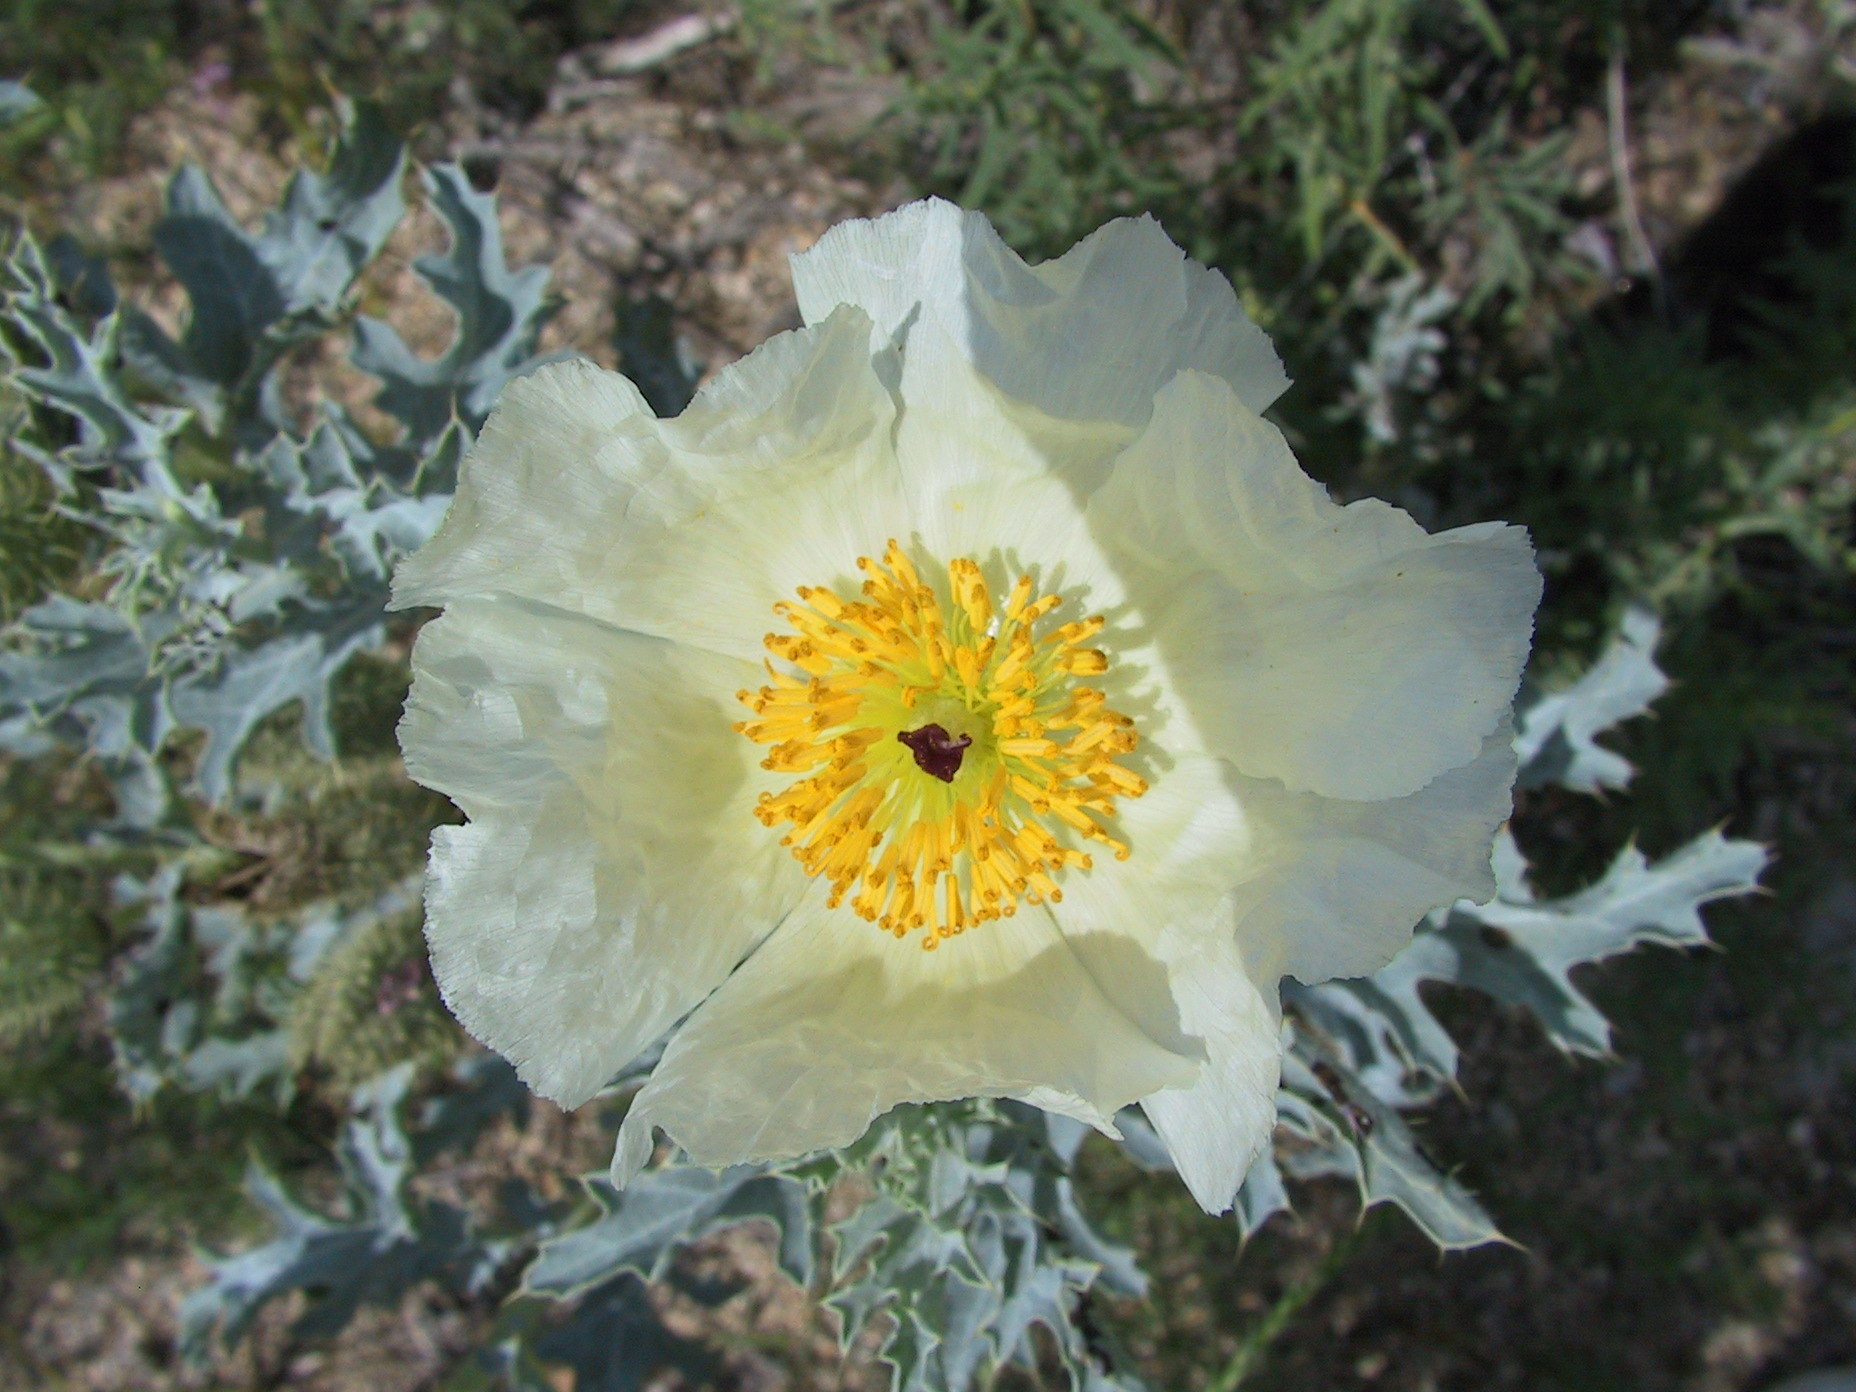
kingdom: Plantae
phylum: Tracheophyta
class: Magnoliopsida
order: Ranunculales
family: Papaveraceae
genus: Argemone
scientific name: Argemone polyanthemos
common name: Plains prickly-poppy
